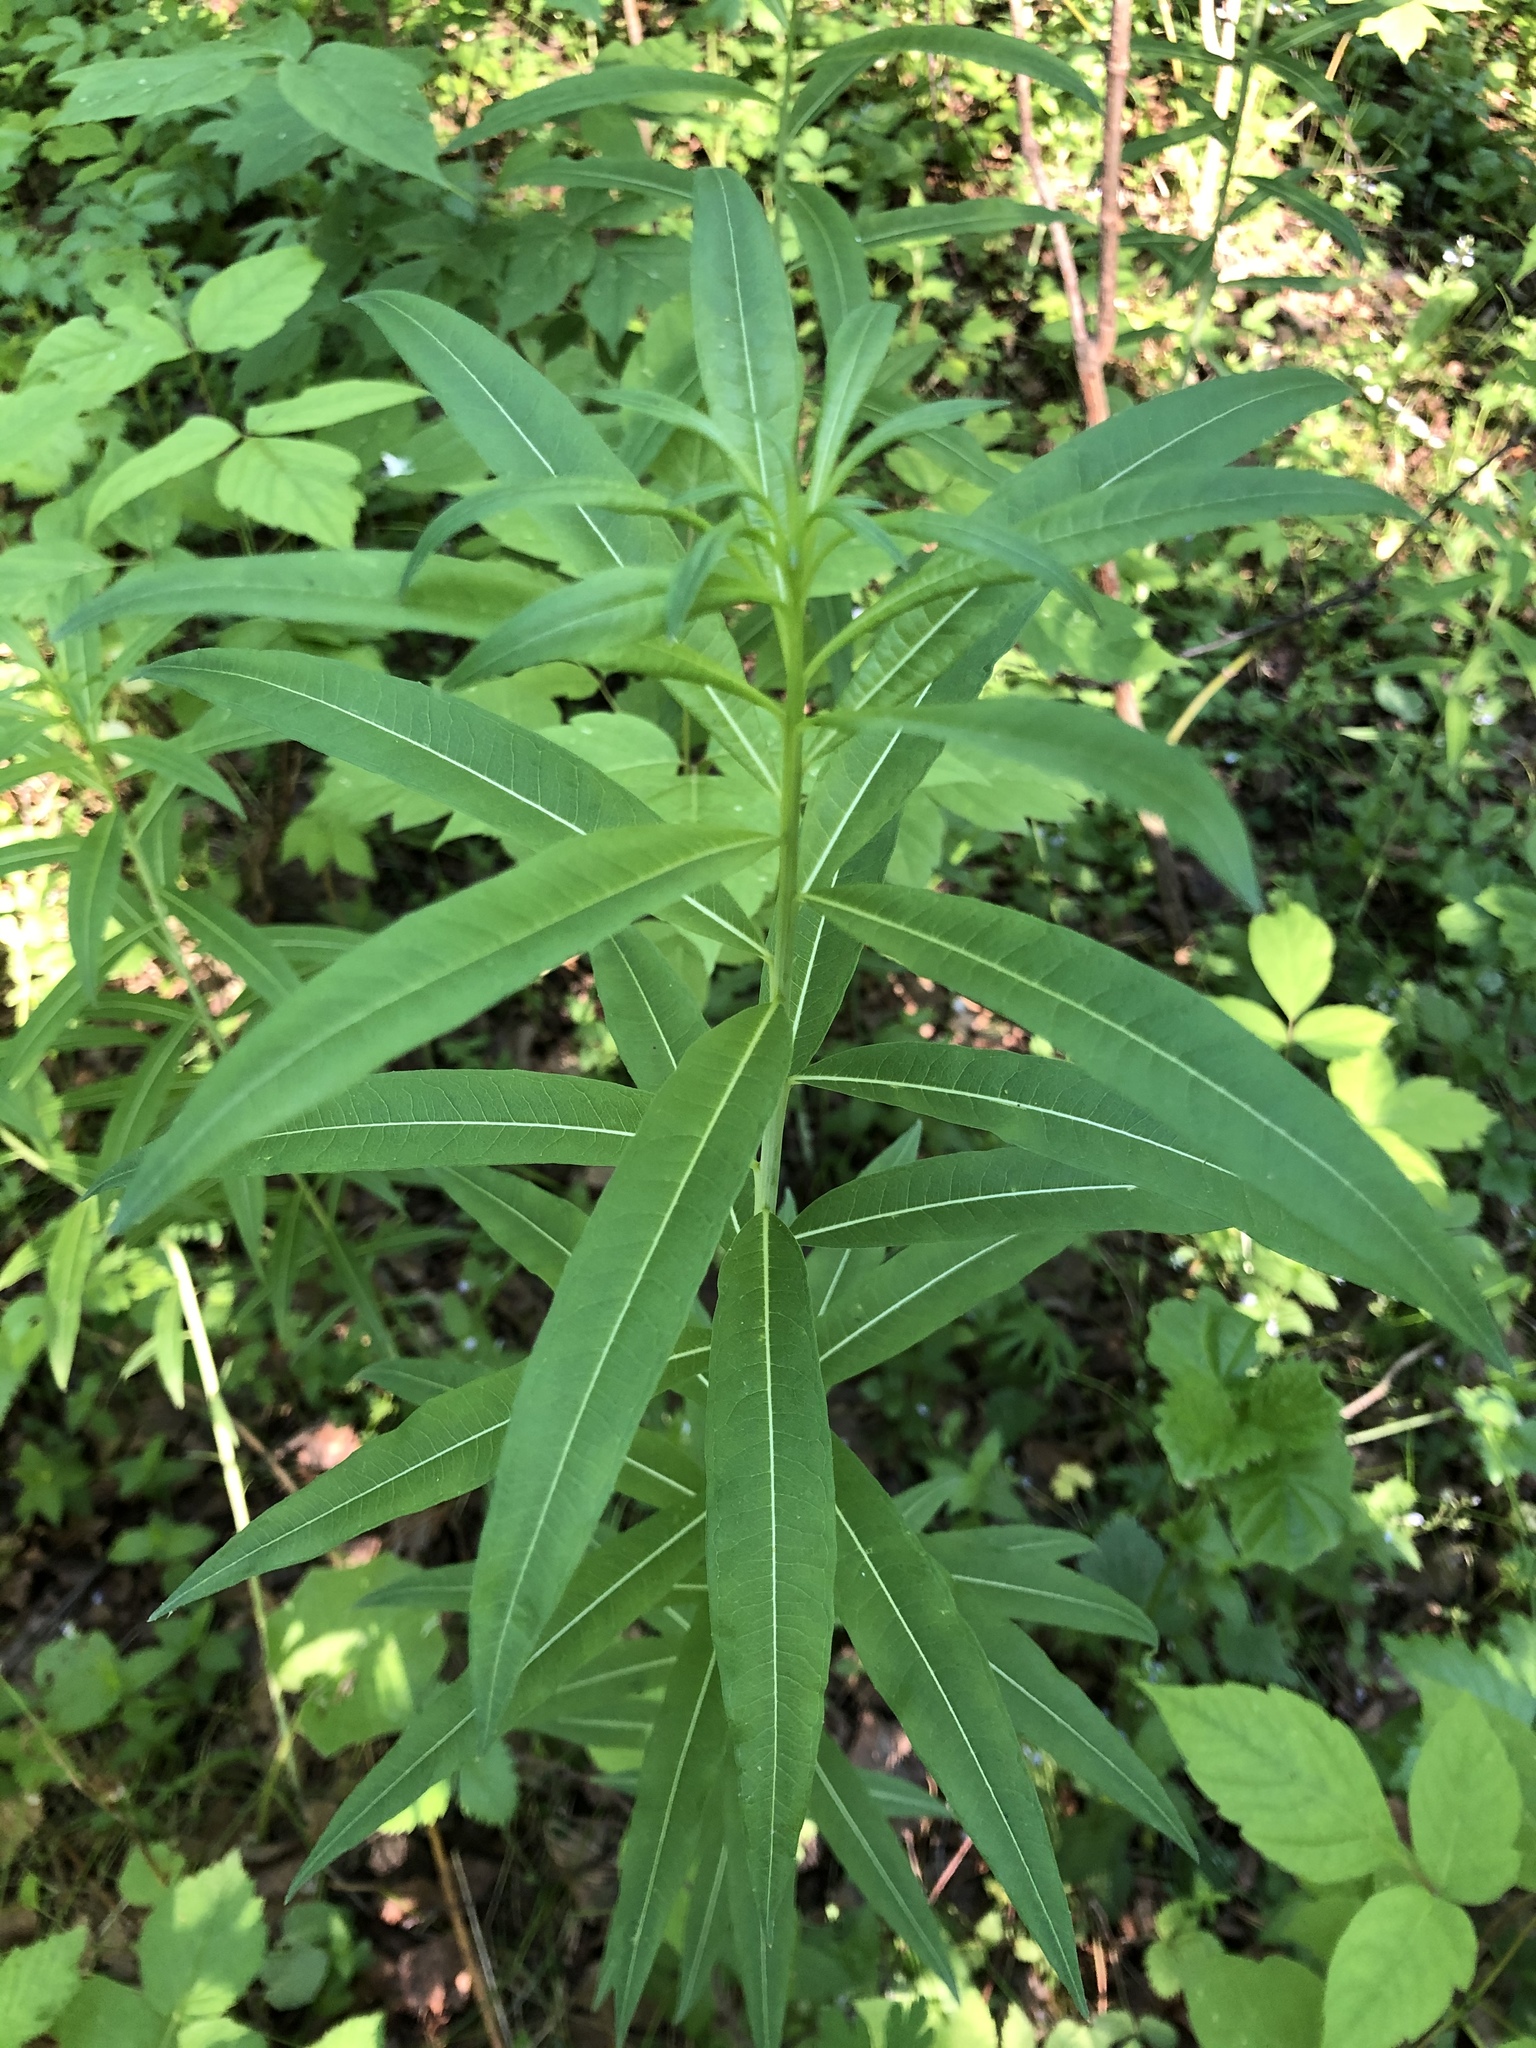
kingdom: Plantae
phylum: Tracheophyta
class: Magnoliopsida
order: Myrtales
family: Onagraceae
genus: Chamaenerion
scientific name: Chamaenerion angustifolium
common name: Fireweed
